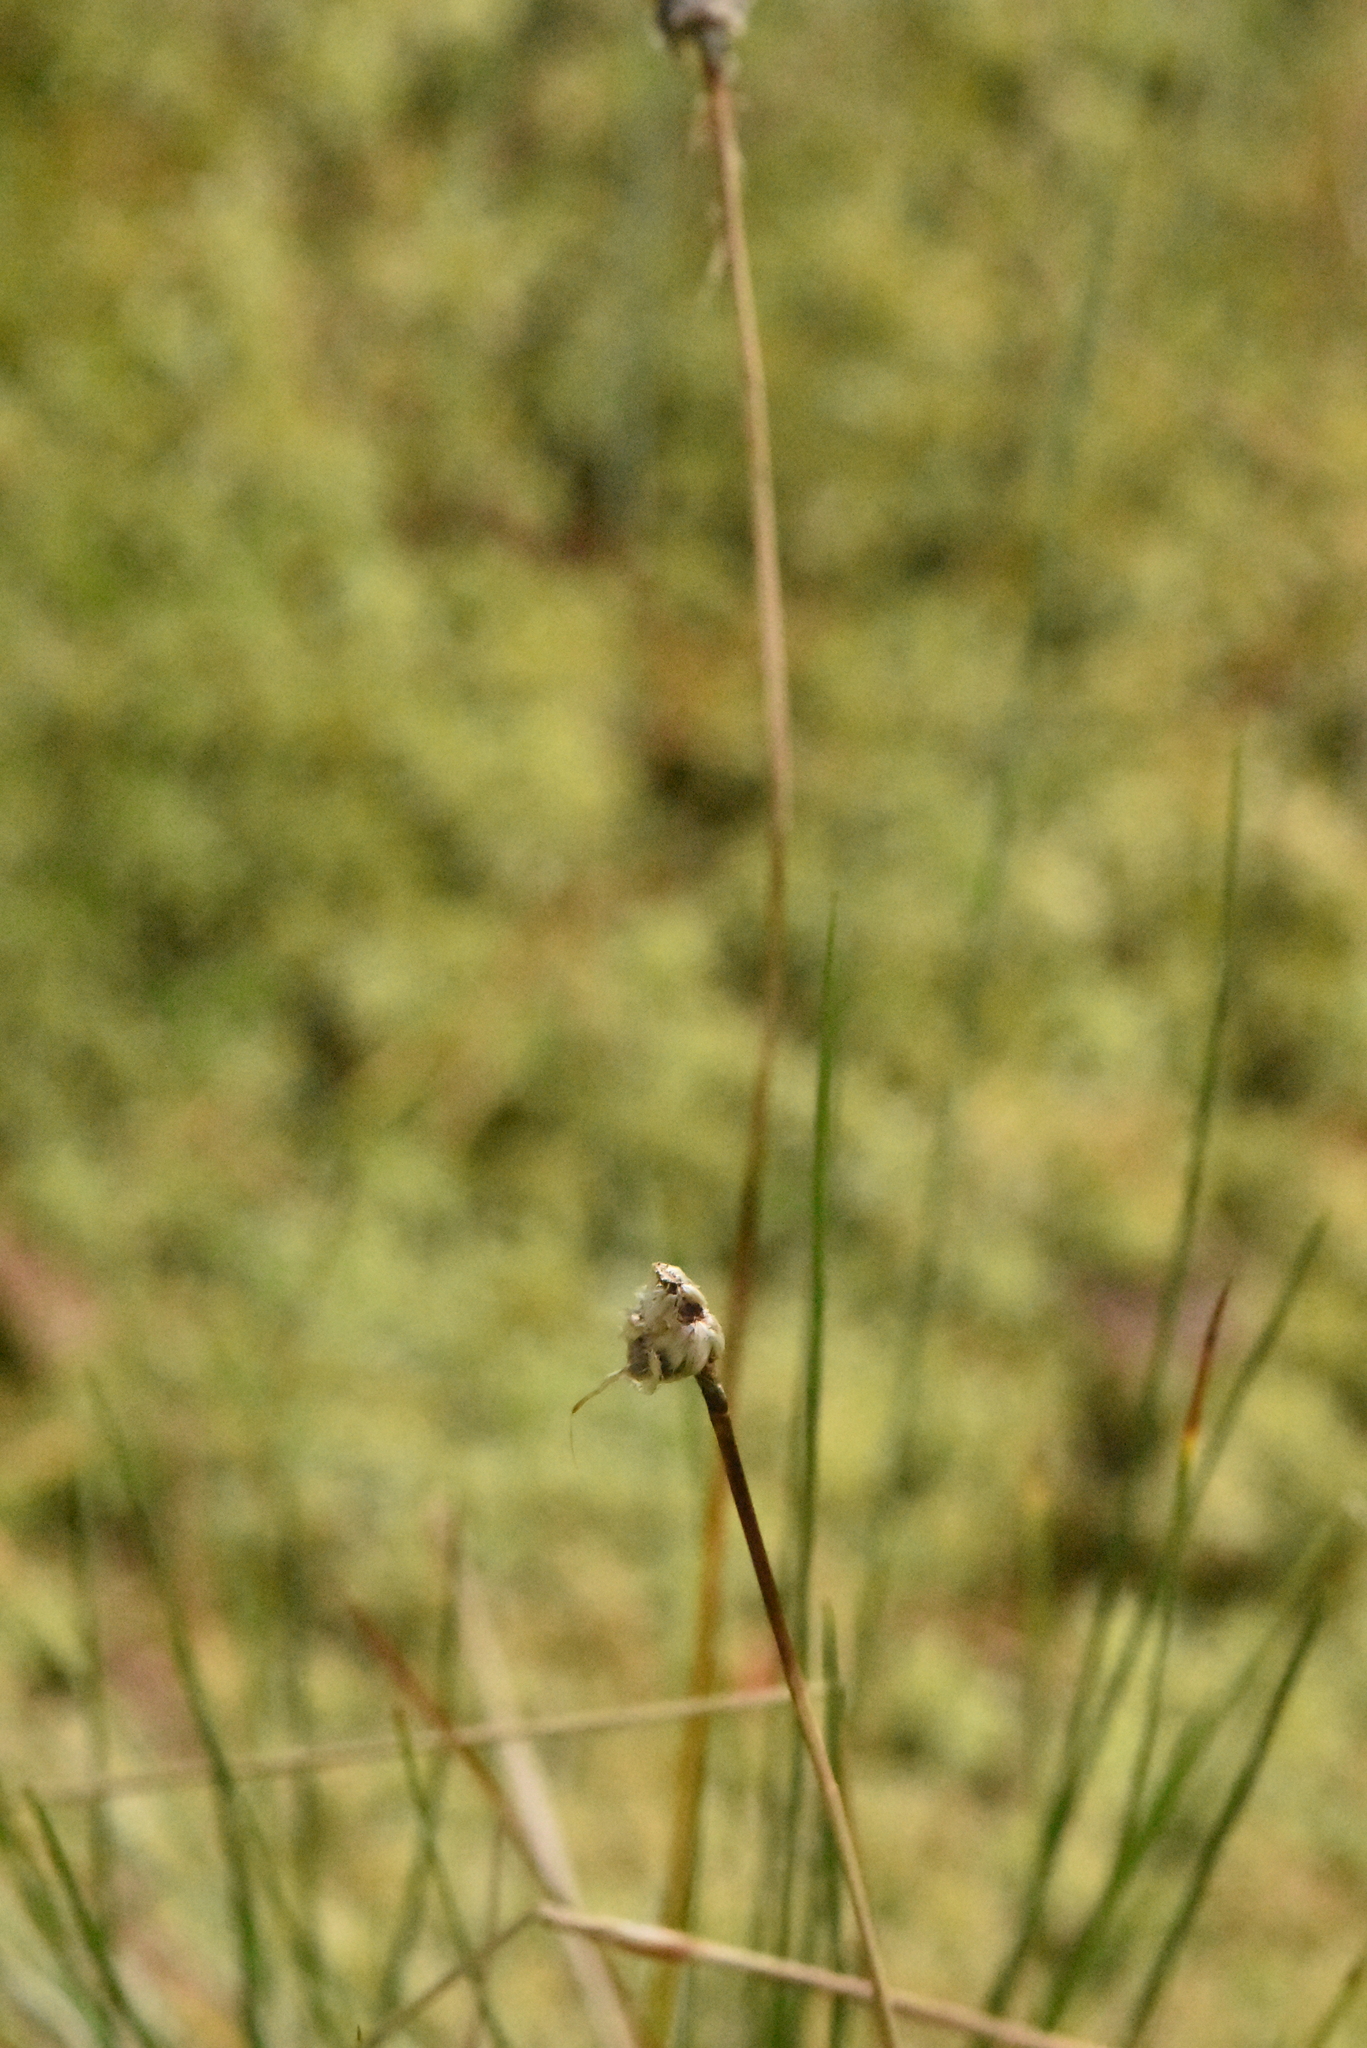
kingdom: Plantae
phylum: Tracheophyta
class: Liliopsida
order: Poales
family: Cyperaceae
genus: Eriophorum
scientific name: Eriophorum vaginatum
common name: Hare's-tail cottongrass
